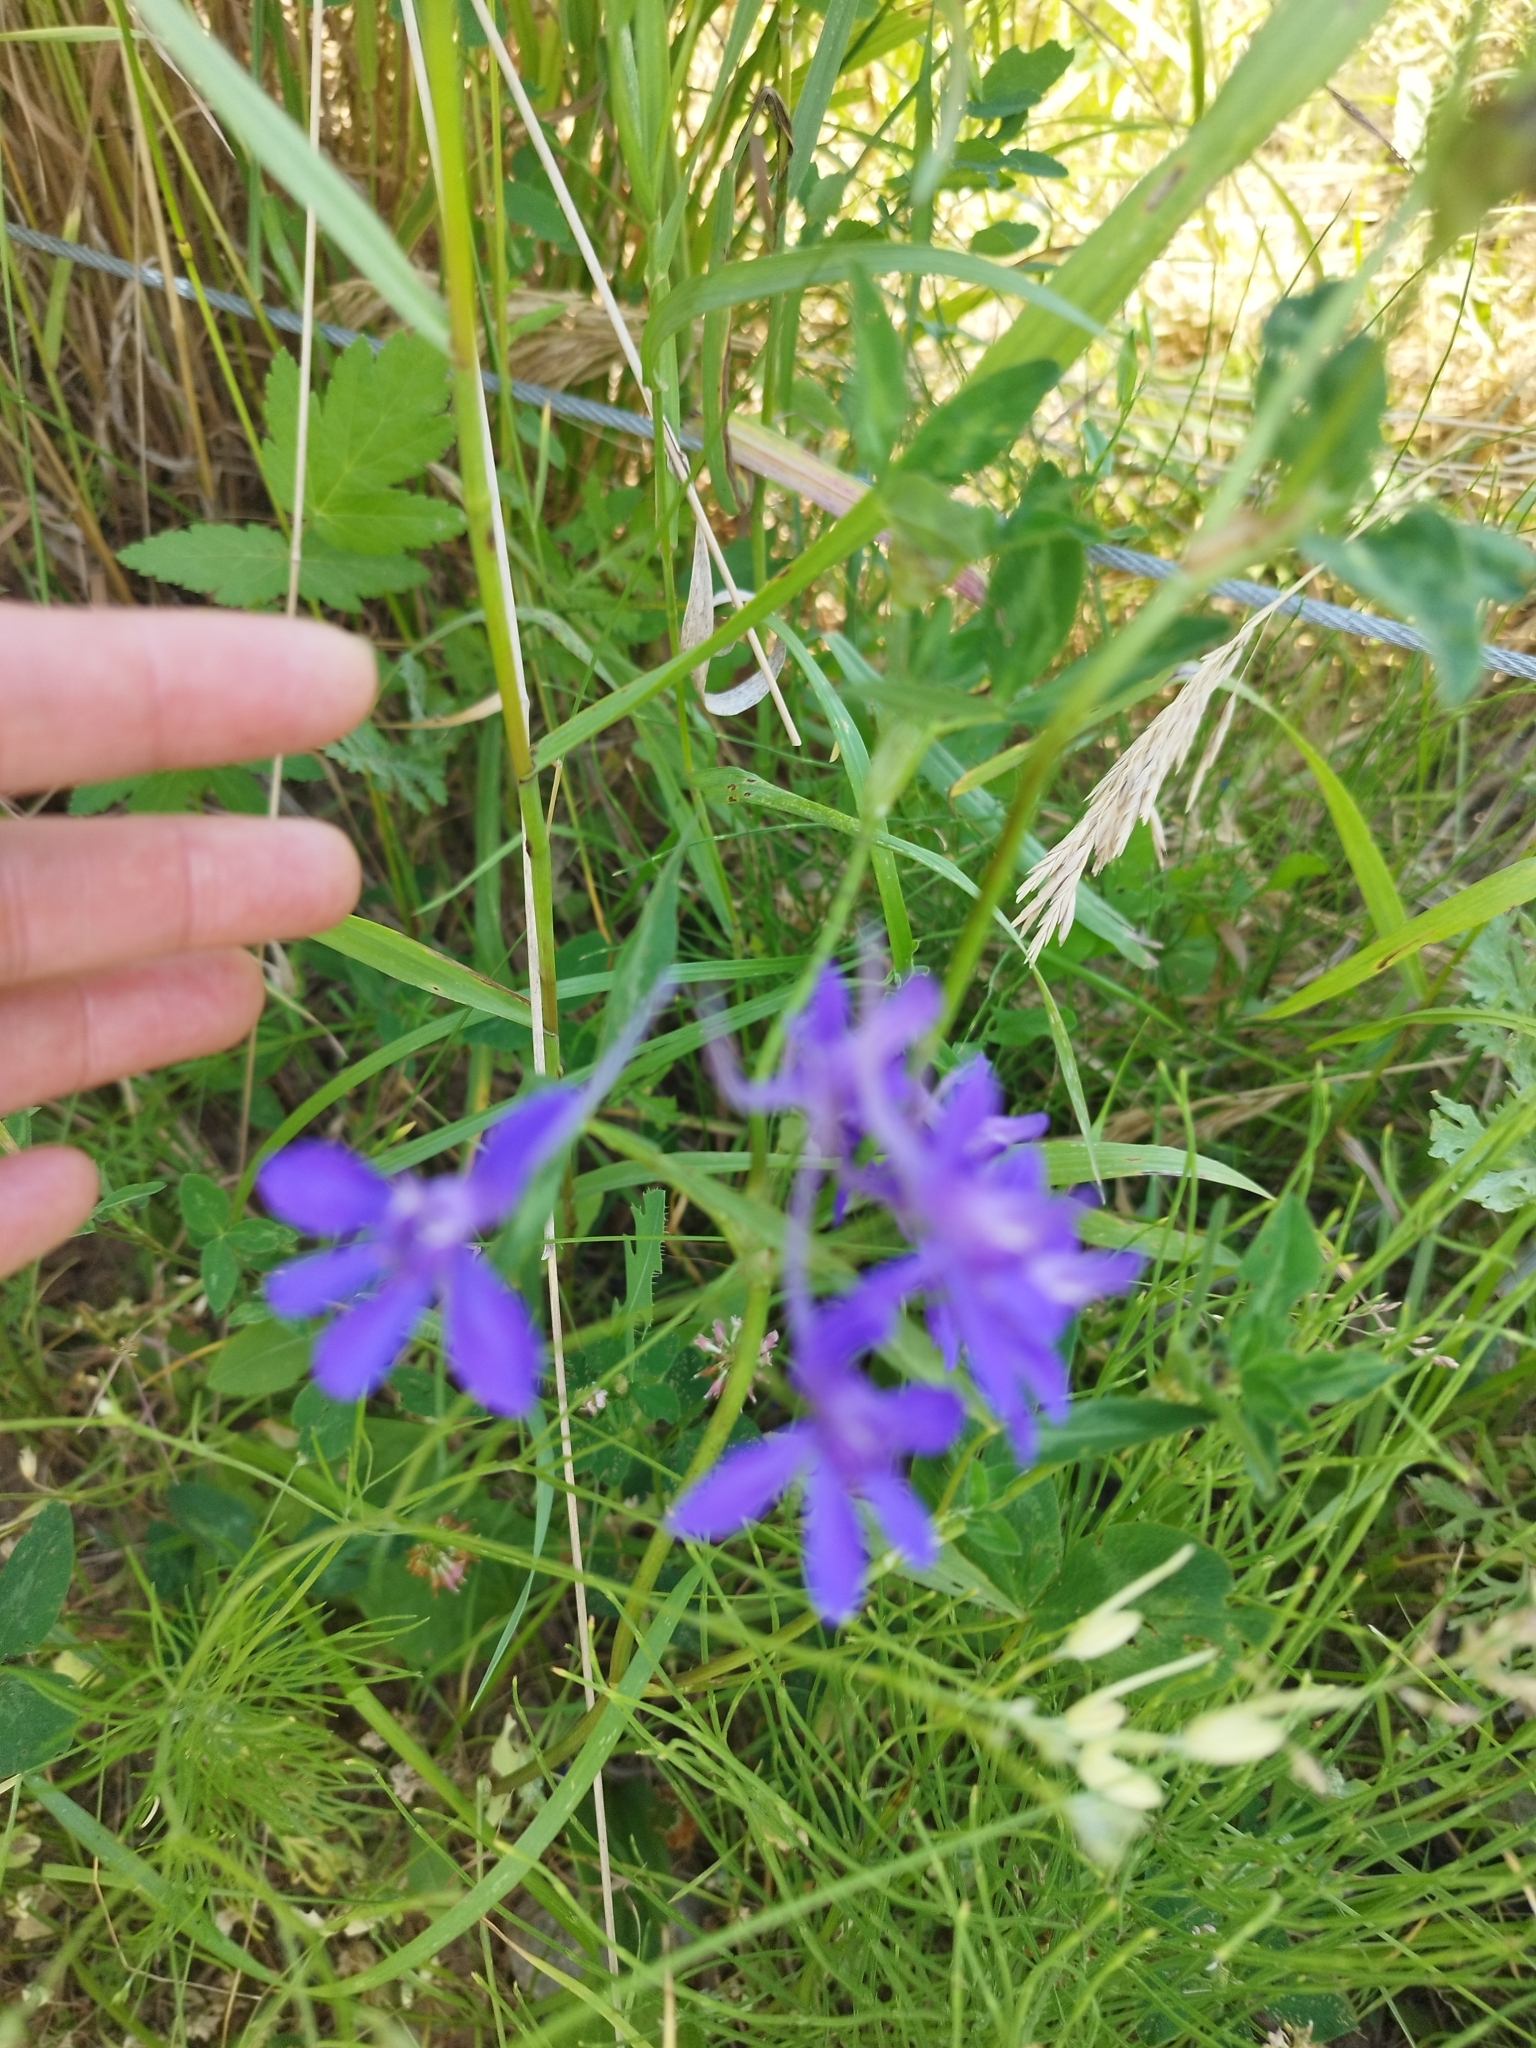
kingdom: Plantae
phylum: Tracheophyta
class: Magnoliopsida
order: Ranunculales
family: Ranunculaceae
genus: Delphinium
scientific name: Delphinium consolida
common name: Branching larkspur
